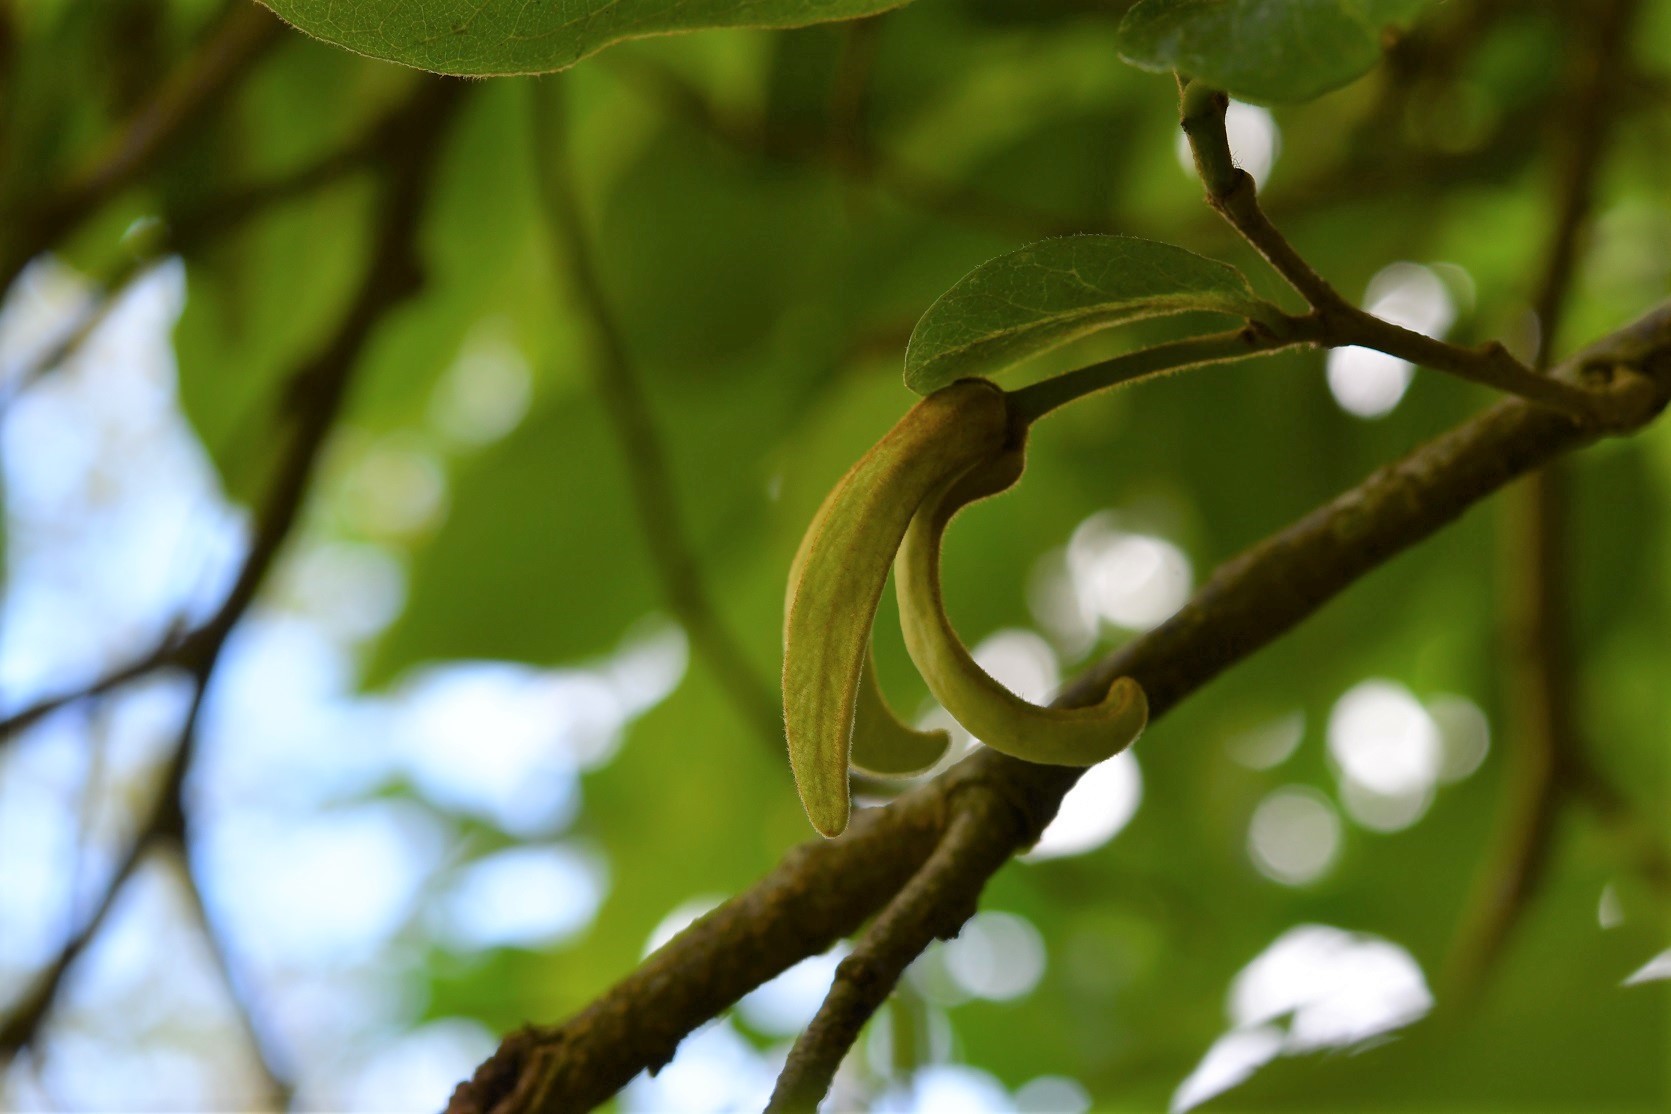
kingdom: Plantae
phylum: Tracheophyta
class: Magnoliopsida
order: Magnoliales
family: Annonaceae
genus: Annona
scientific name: Annona cherimola
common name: Cherimoya
